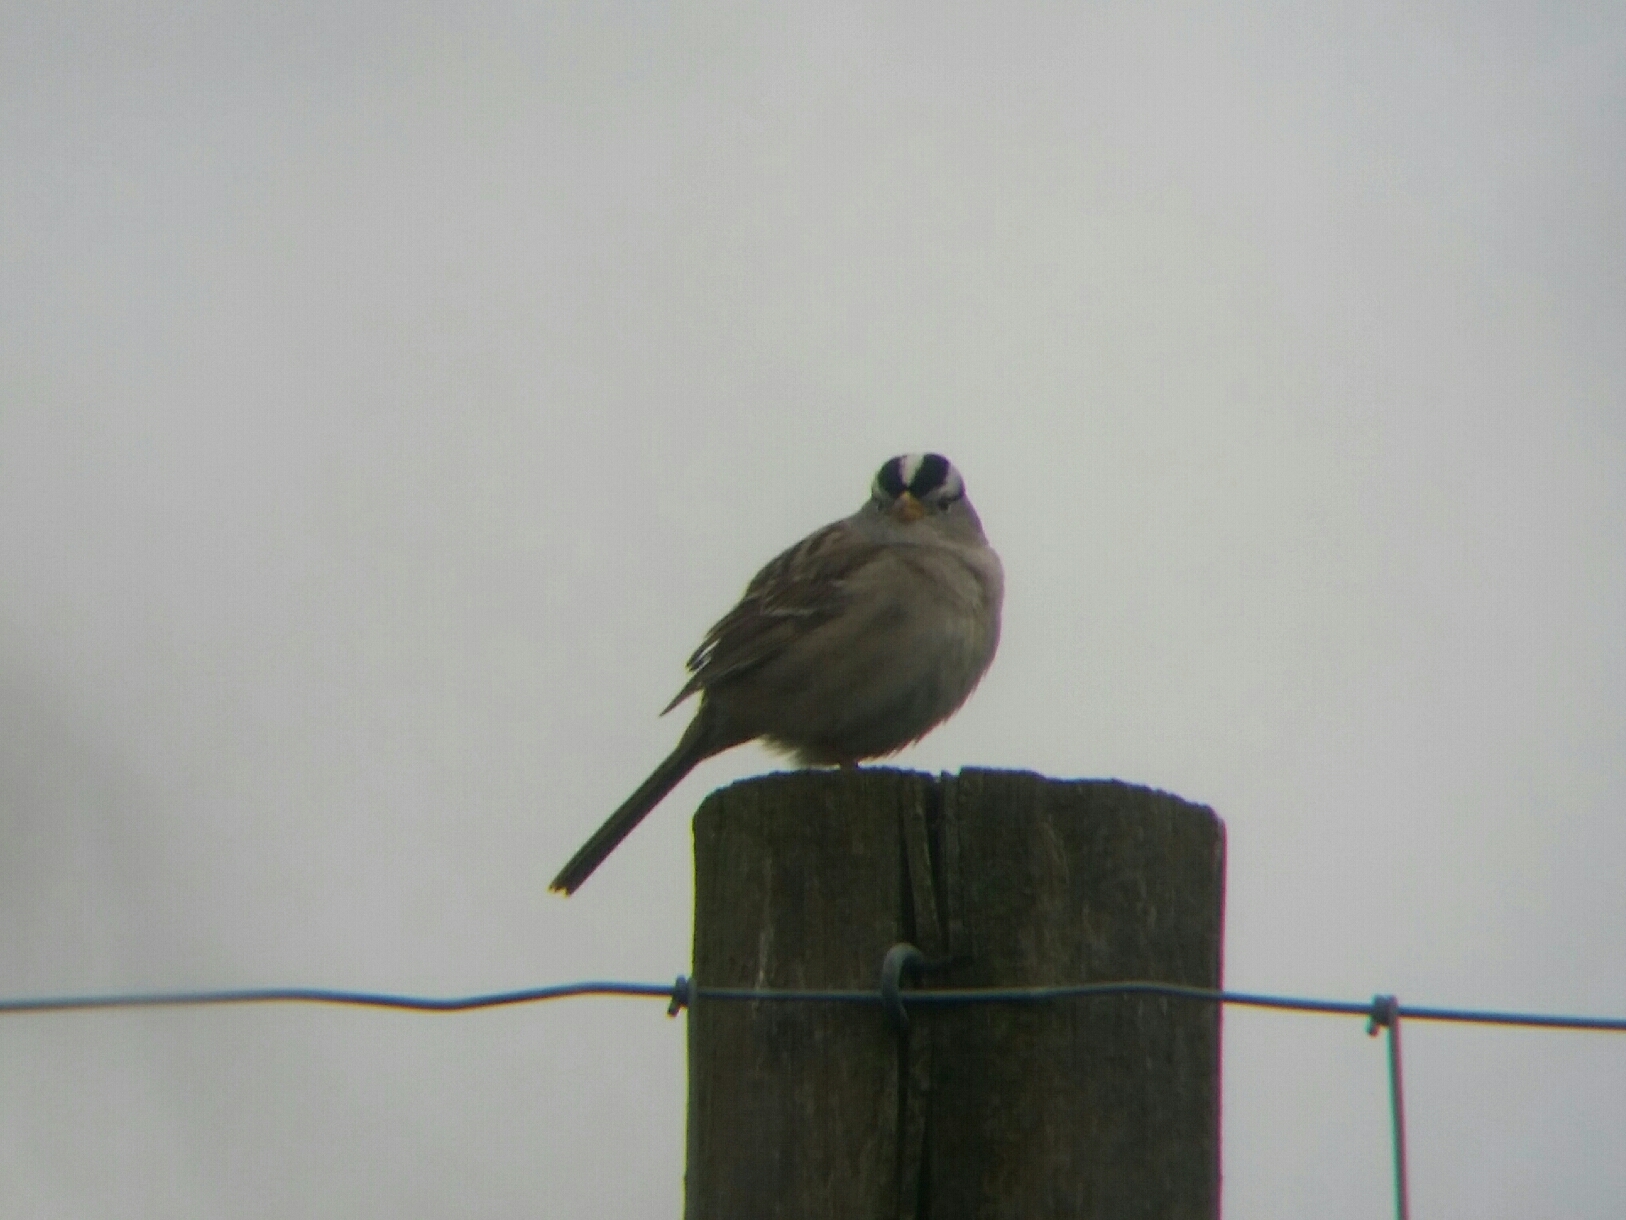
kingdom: Animalia
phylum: Chordata
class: Aves
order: Passeriformes
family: Passerellidae
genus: Zonotrichia
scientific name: Zonotrichia leucophrys
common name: White-crowned sparrow
